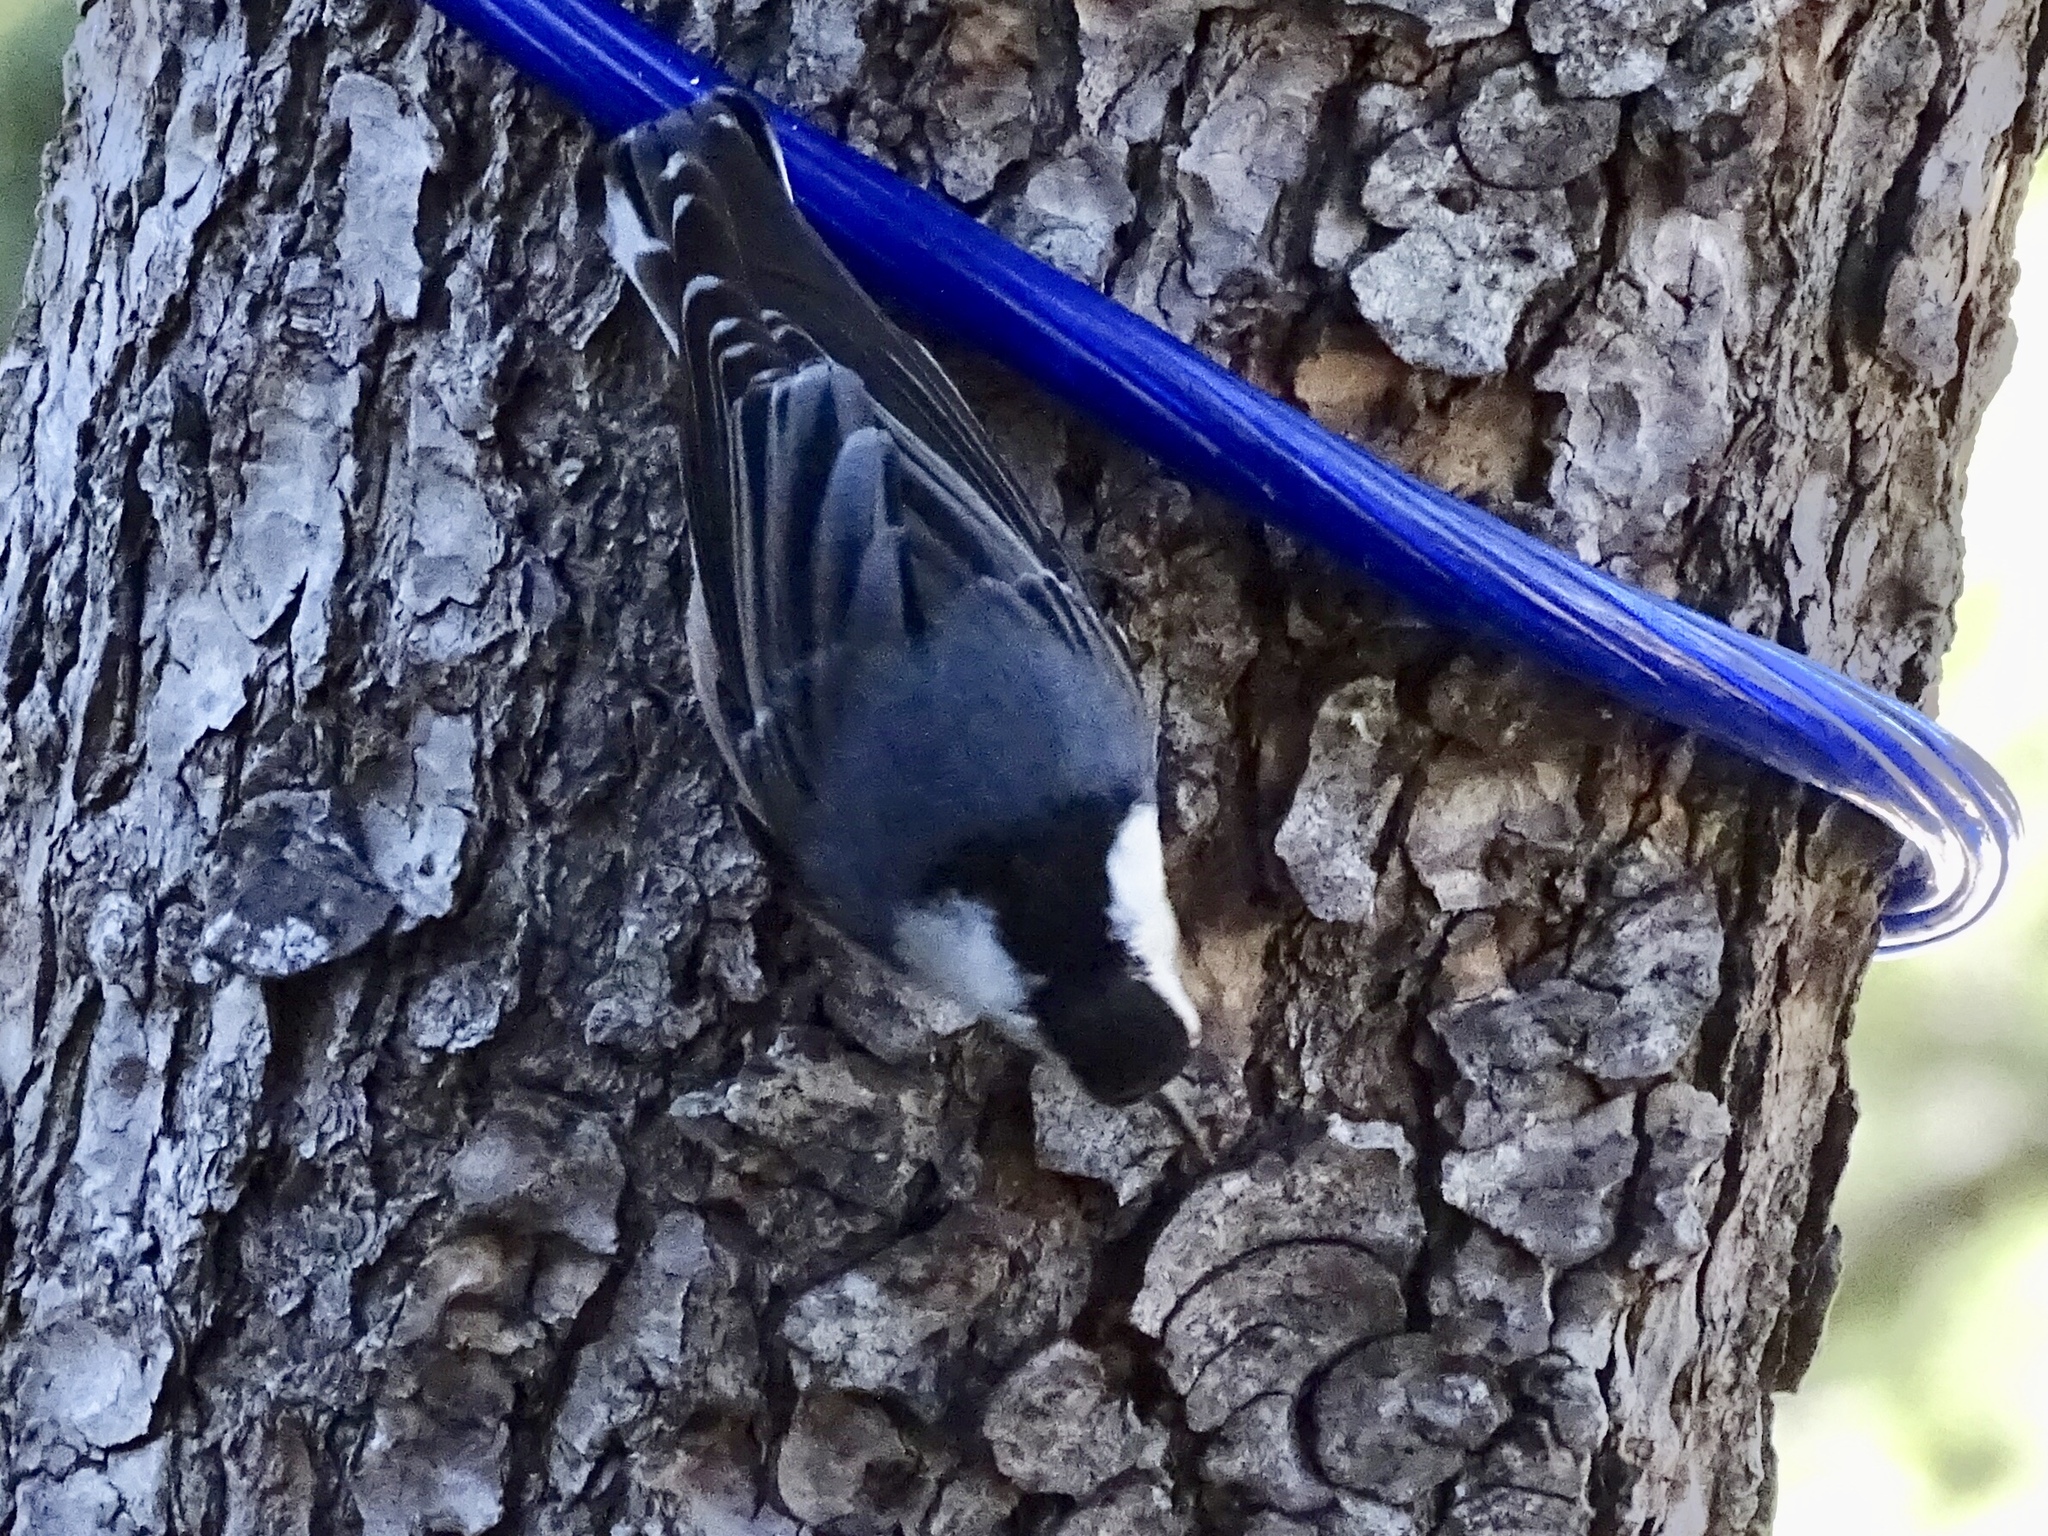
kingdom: Animalia
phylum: Chordata
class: Aves
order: Passeriformes
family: Sittidae
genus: Sitta
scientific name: Sitta carolinensis
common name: White-breasted nuthatch
